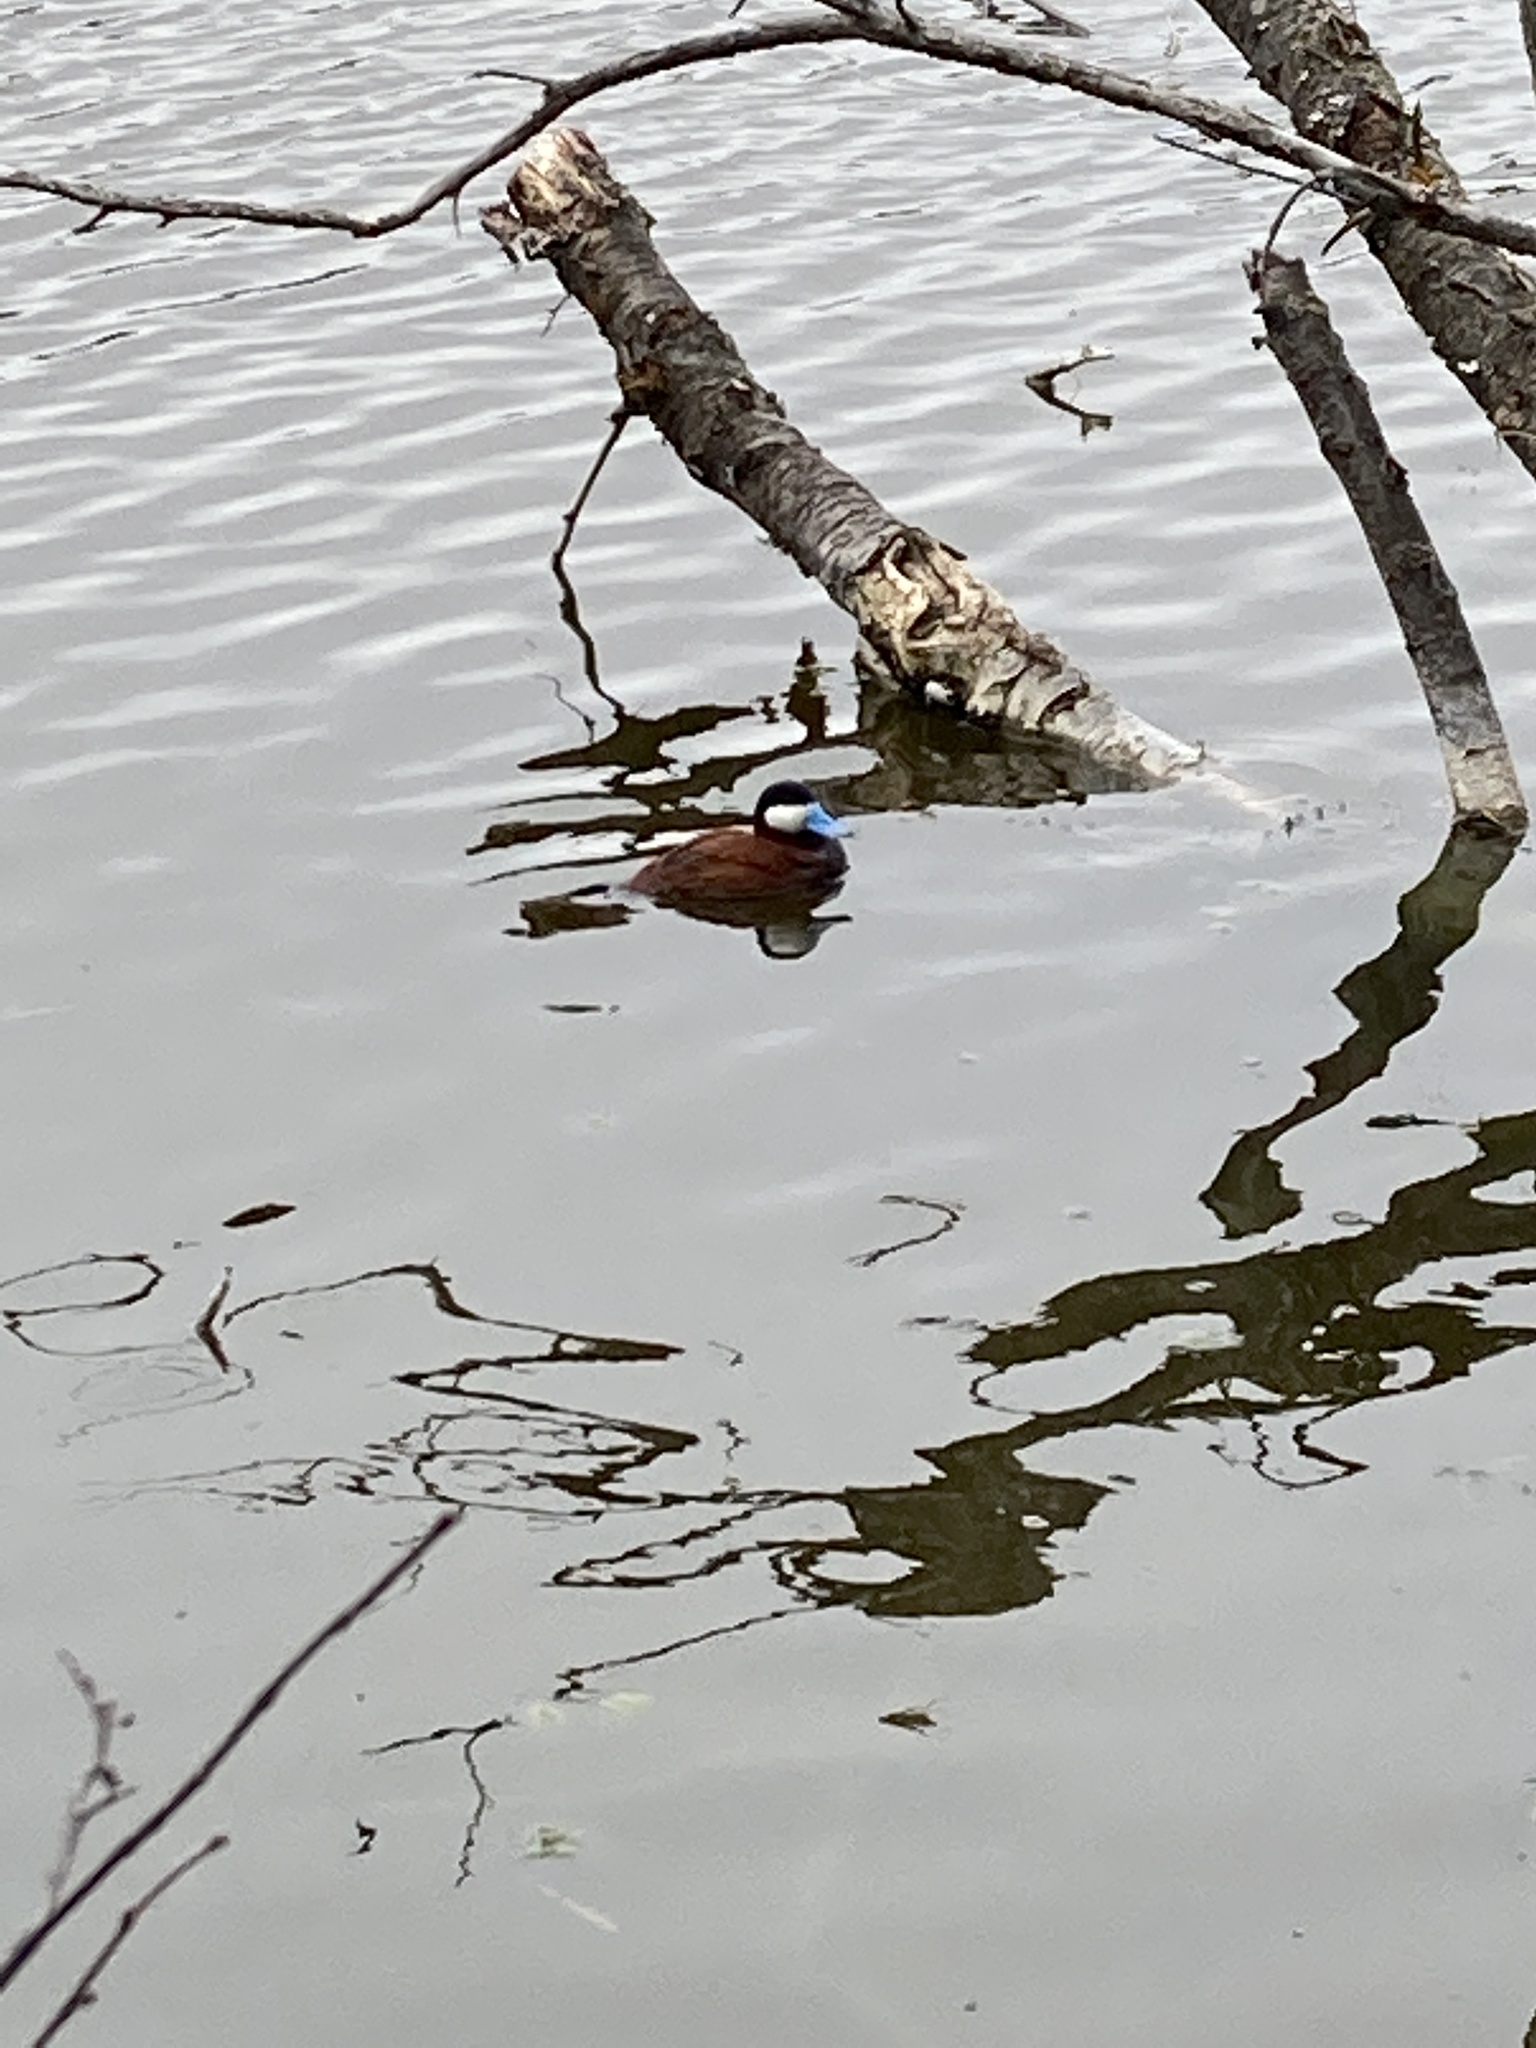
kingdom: Animalia
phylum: Chordata
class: Aves
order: Anseriformes
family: Anatidae
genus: Oxyura
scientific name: Oxyura jamaicensis
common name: Ruddy duck
